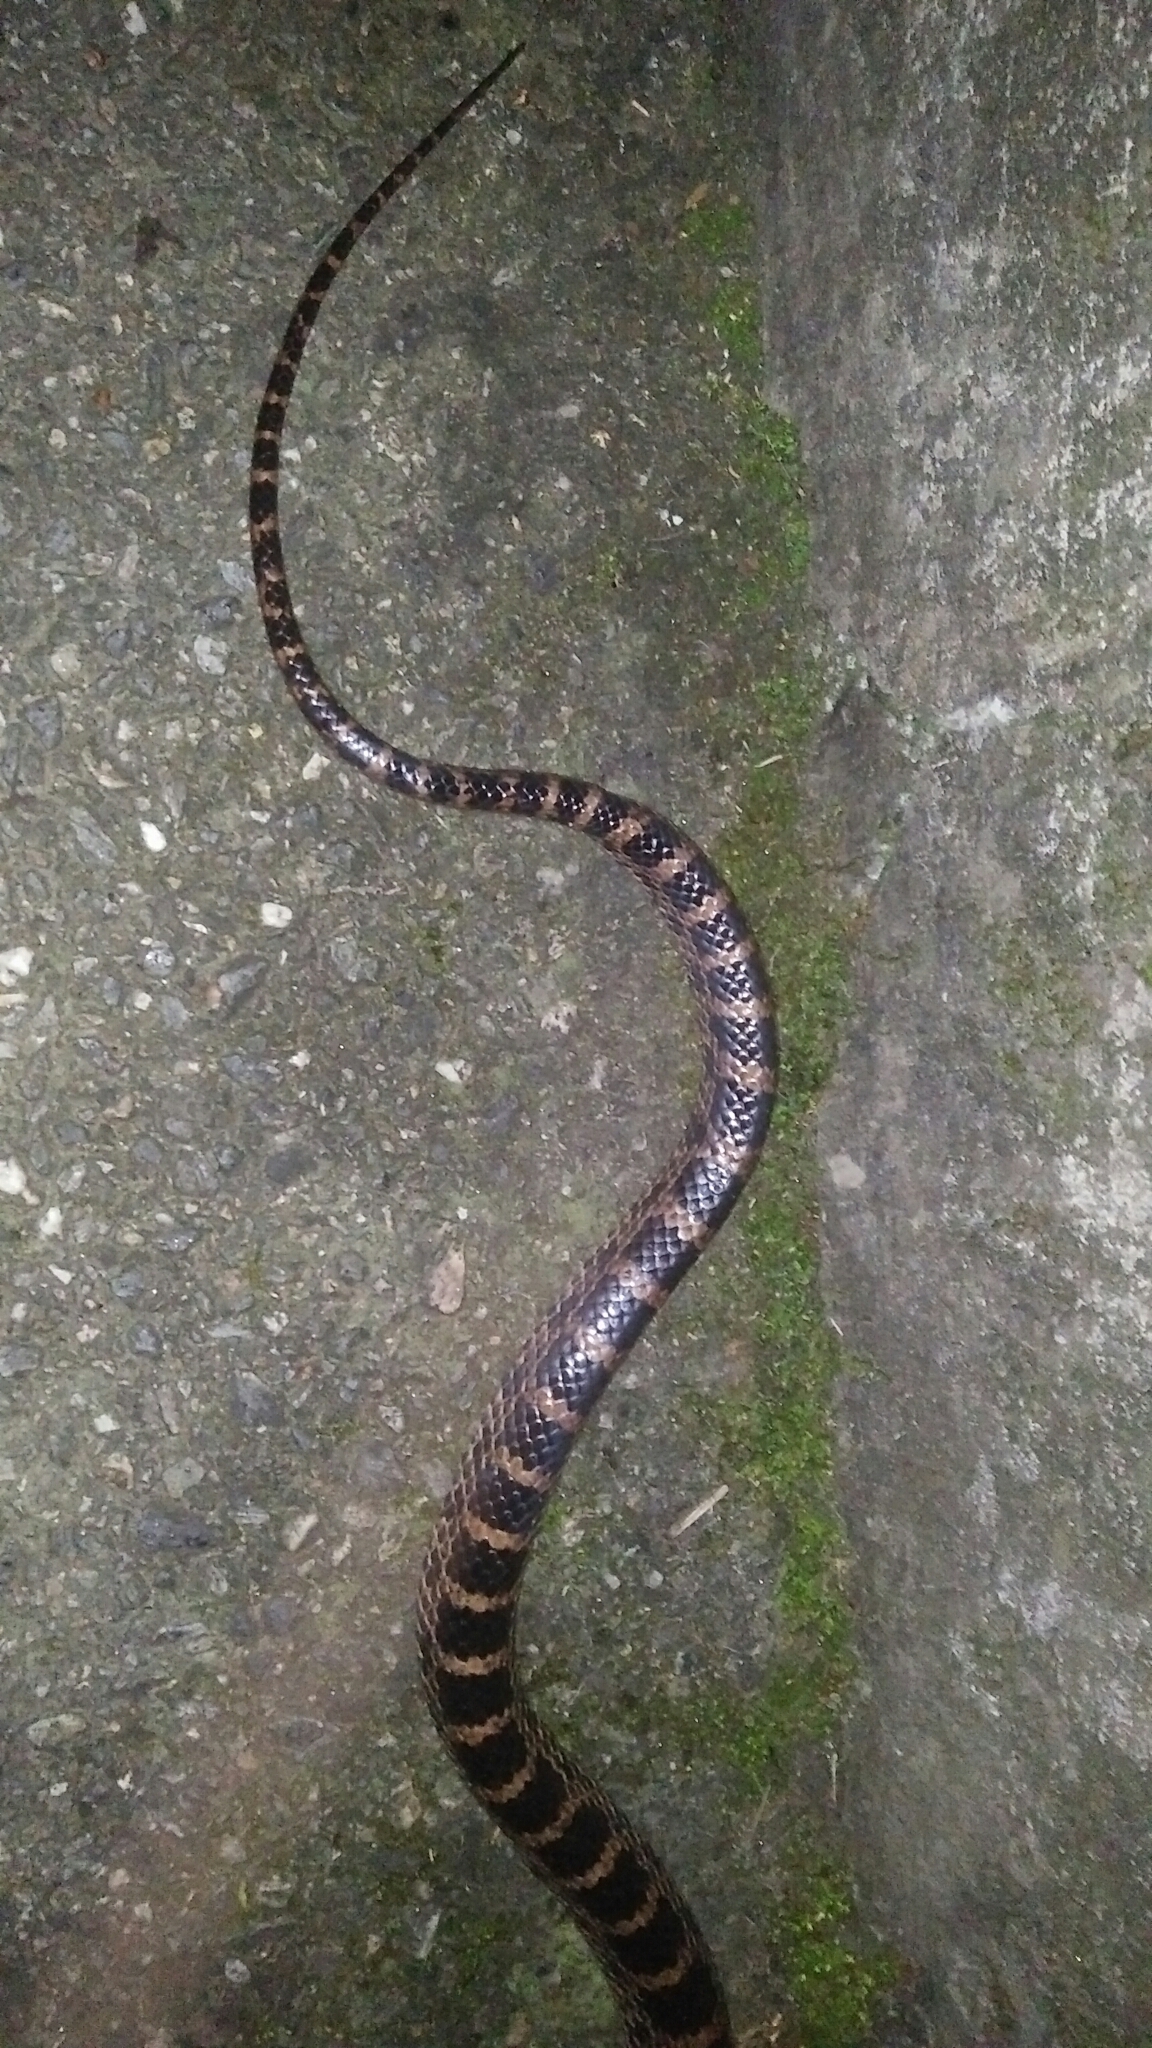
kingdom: Animalia
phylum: Chordata
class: Squamata
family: Colubridae
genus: Lycodon
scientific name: Lycodon rufozonatus
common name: Red-banded snake
